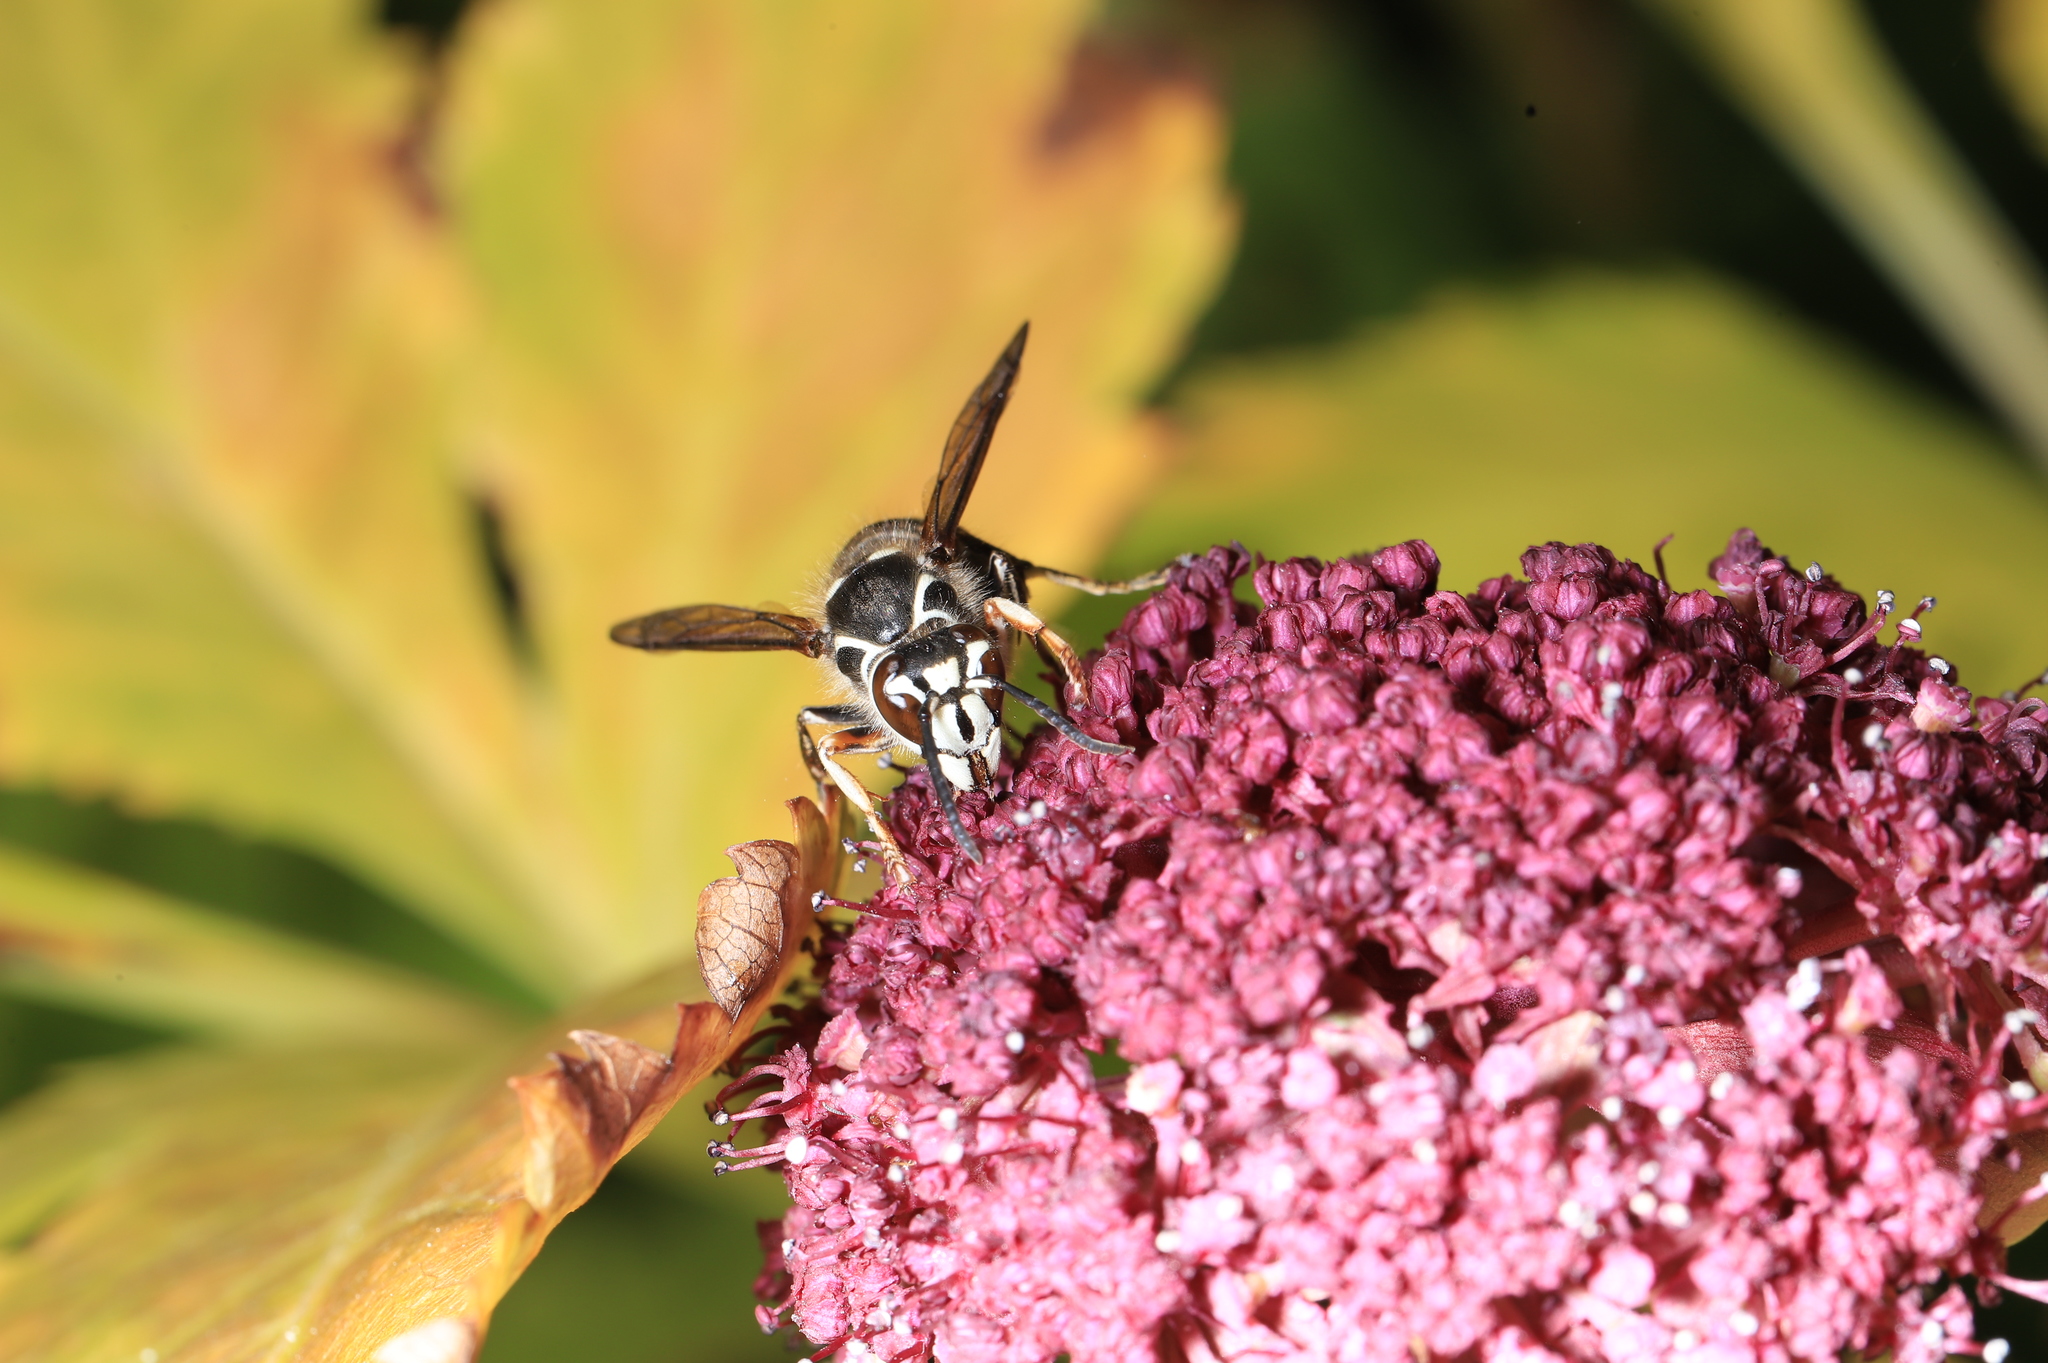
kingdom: Animalia
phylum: Arthropoda
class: Insecta
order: Hymenoptera
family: Vespidae
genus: Dolichovespula
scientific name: Dolichovespula maculata
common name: Bald-faced hornet
